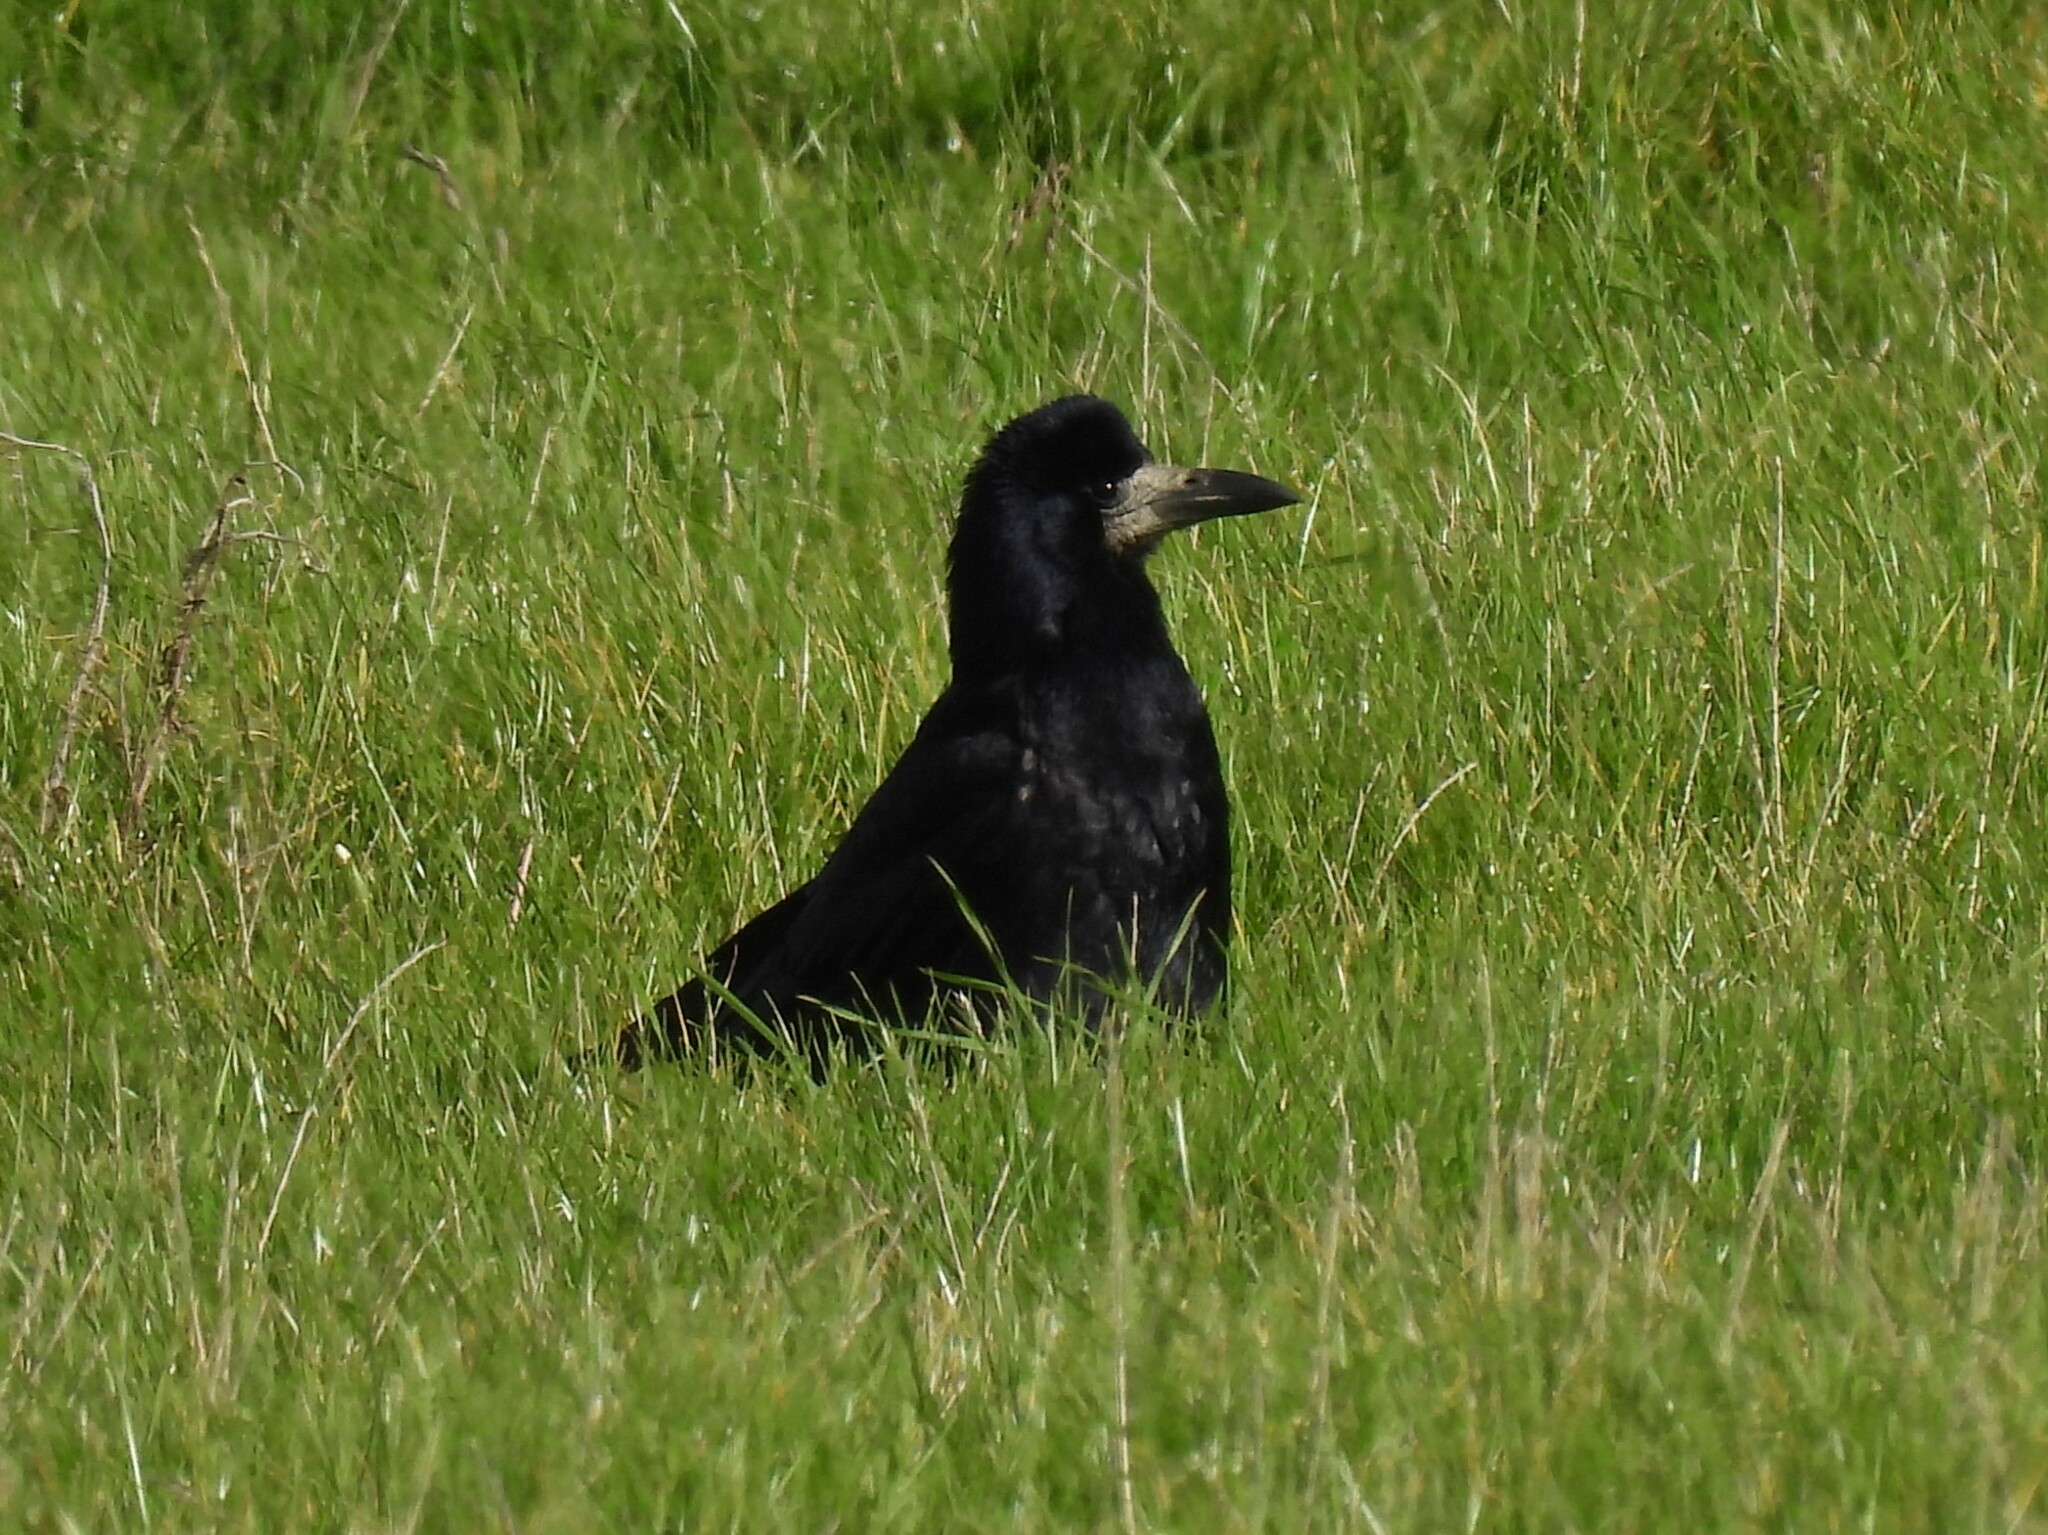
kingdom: Animalia
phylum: Chordata
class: Aves
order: Passeriformes
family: Corvidae
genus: Corvus
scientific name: Corvus frugilegus
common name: Rook
